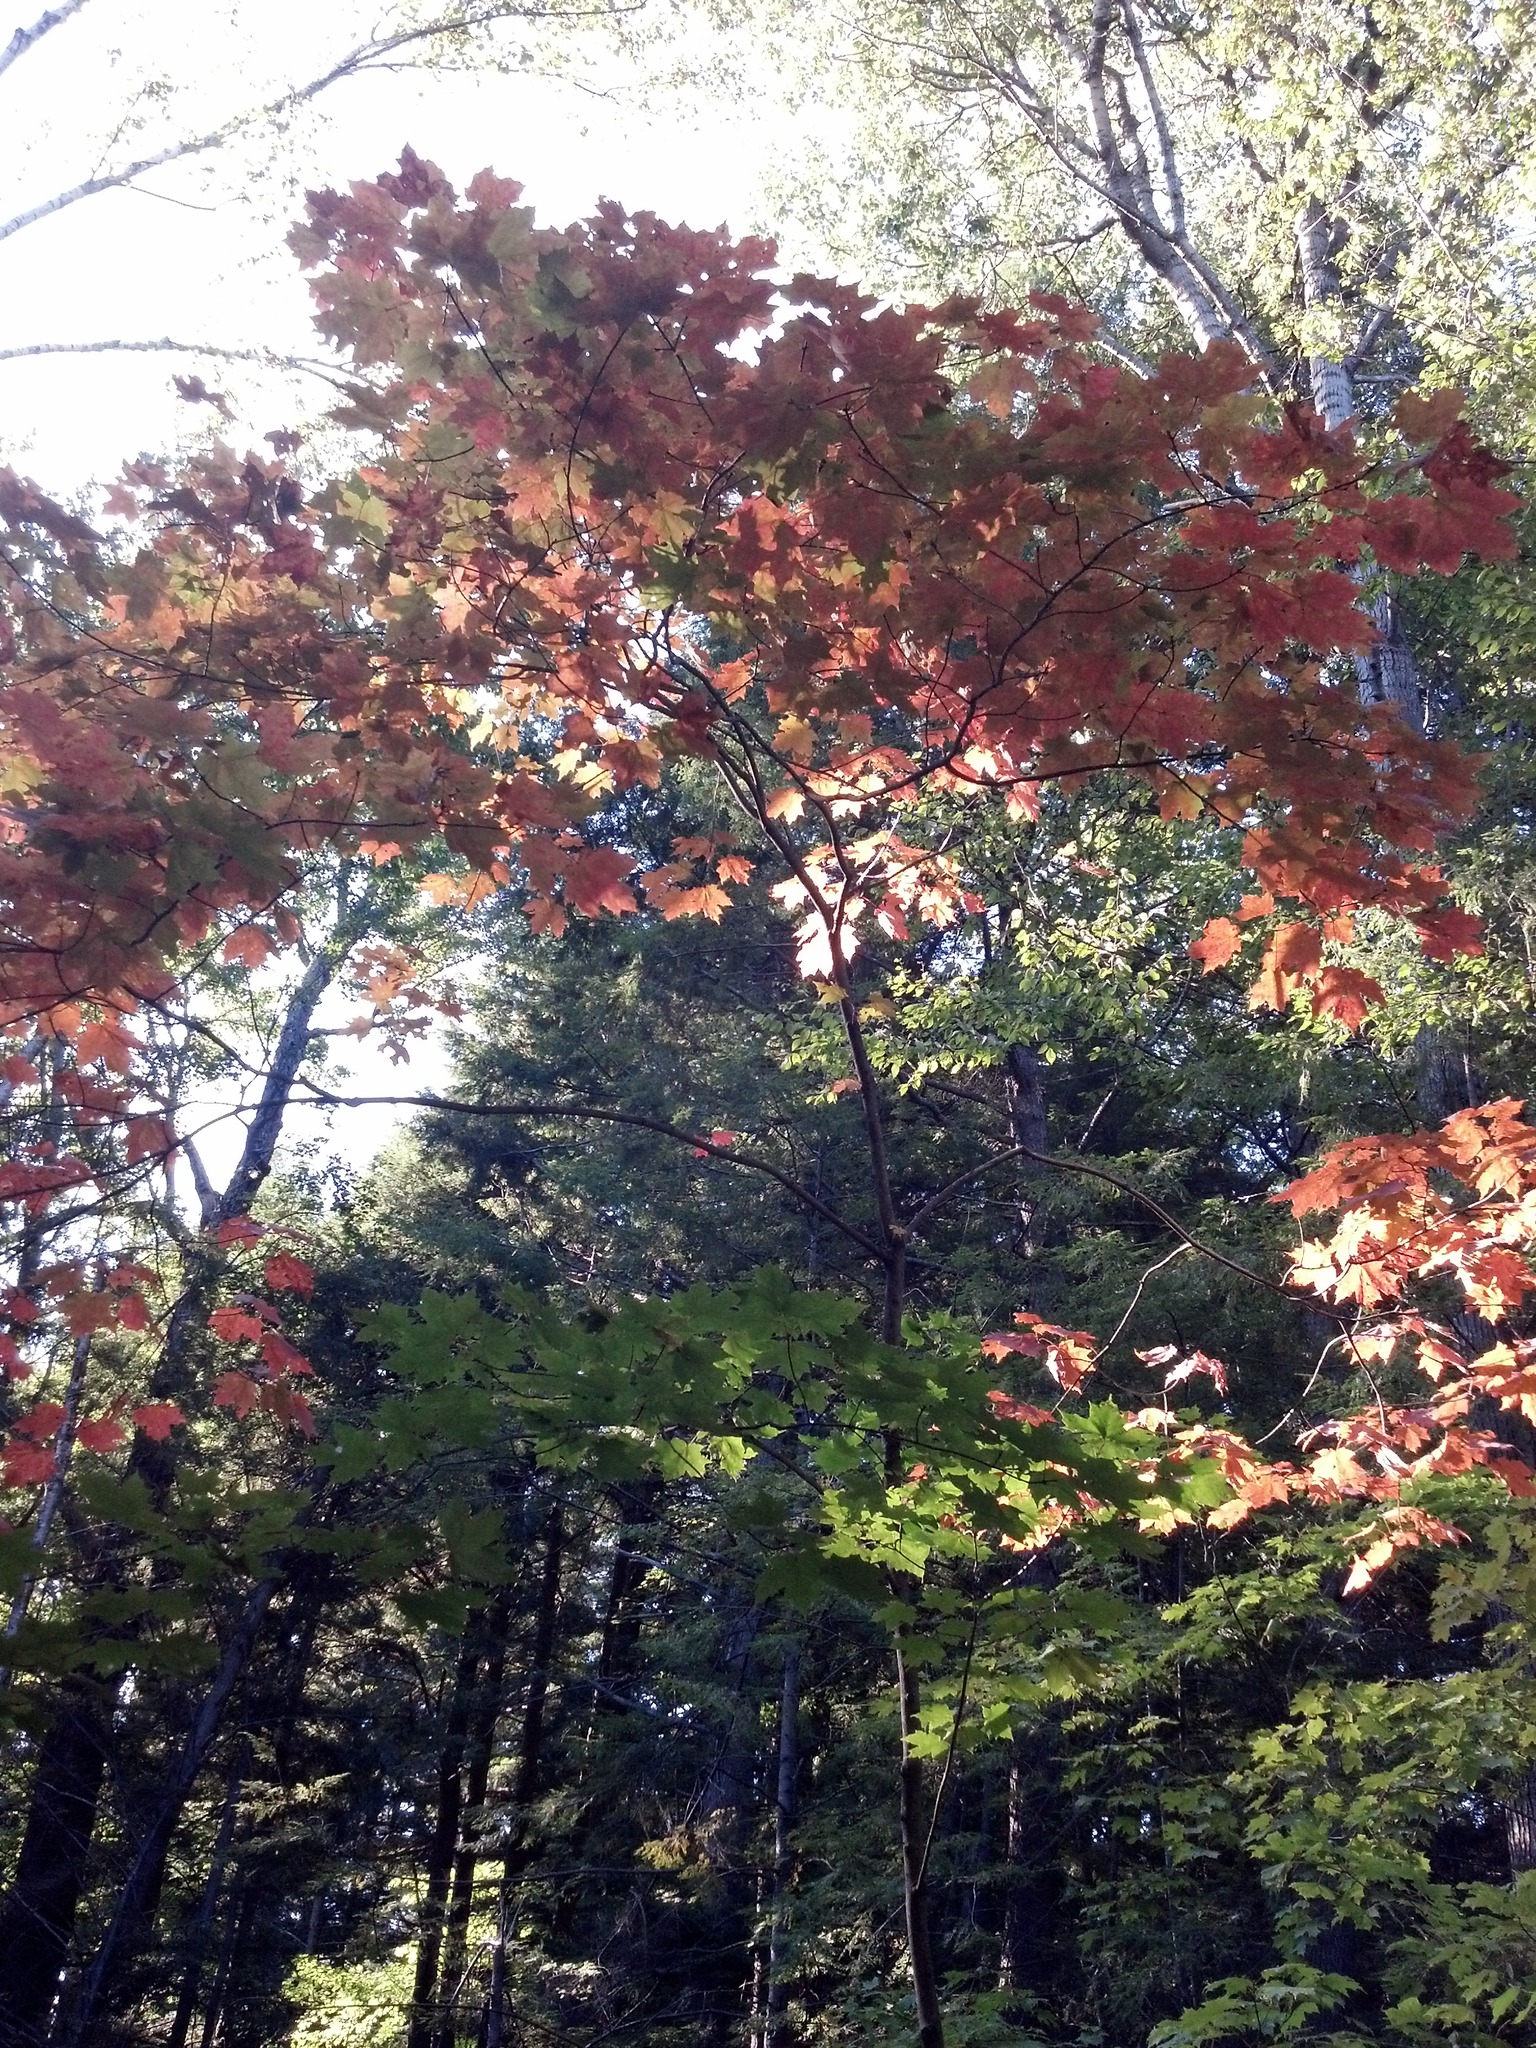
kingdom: Plantae
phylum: Tracheophyta
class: Magnoliopsida
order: Sapindales
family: Sapindaceae
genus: Acer
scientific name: Acer saccharum
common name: Sugar maple
